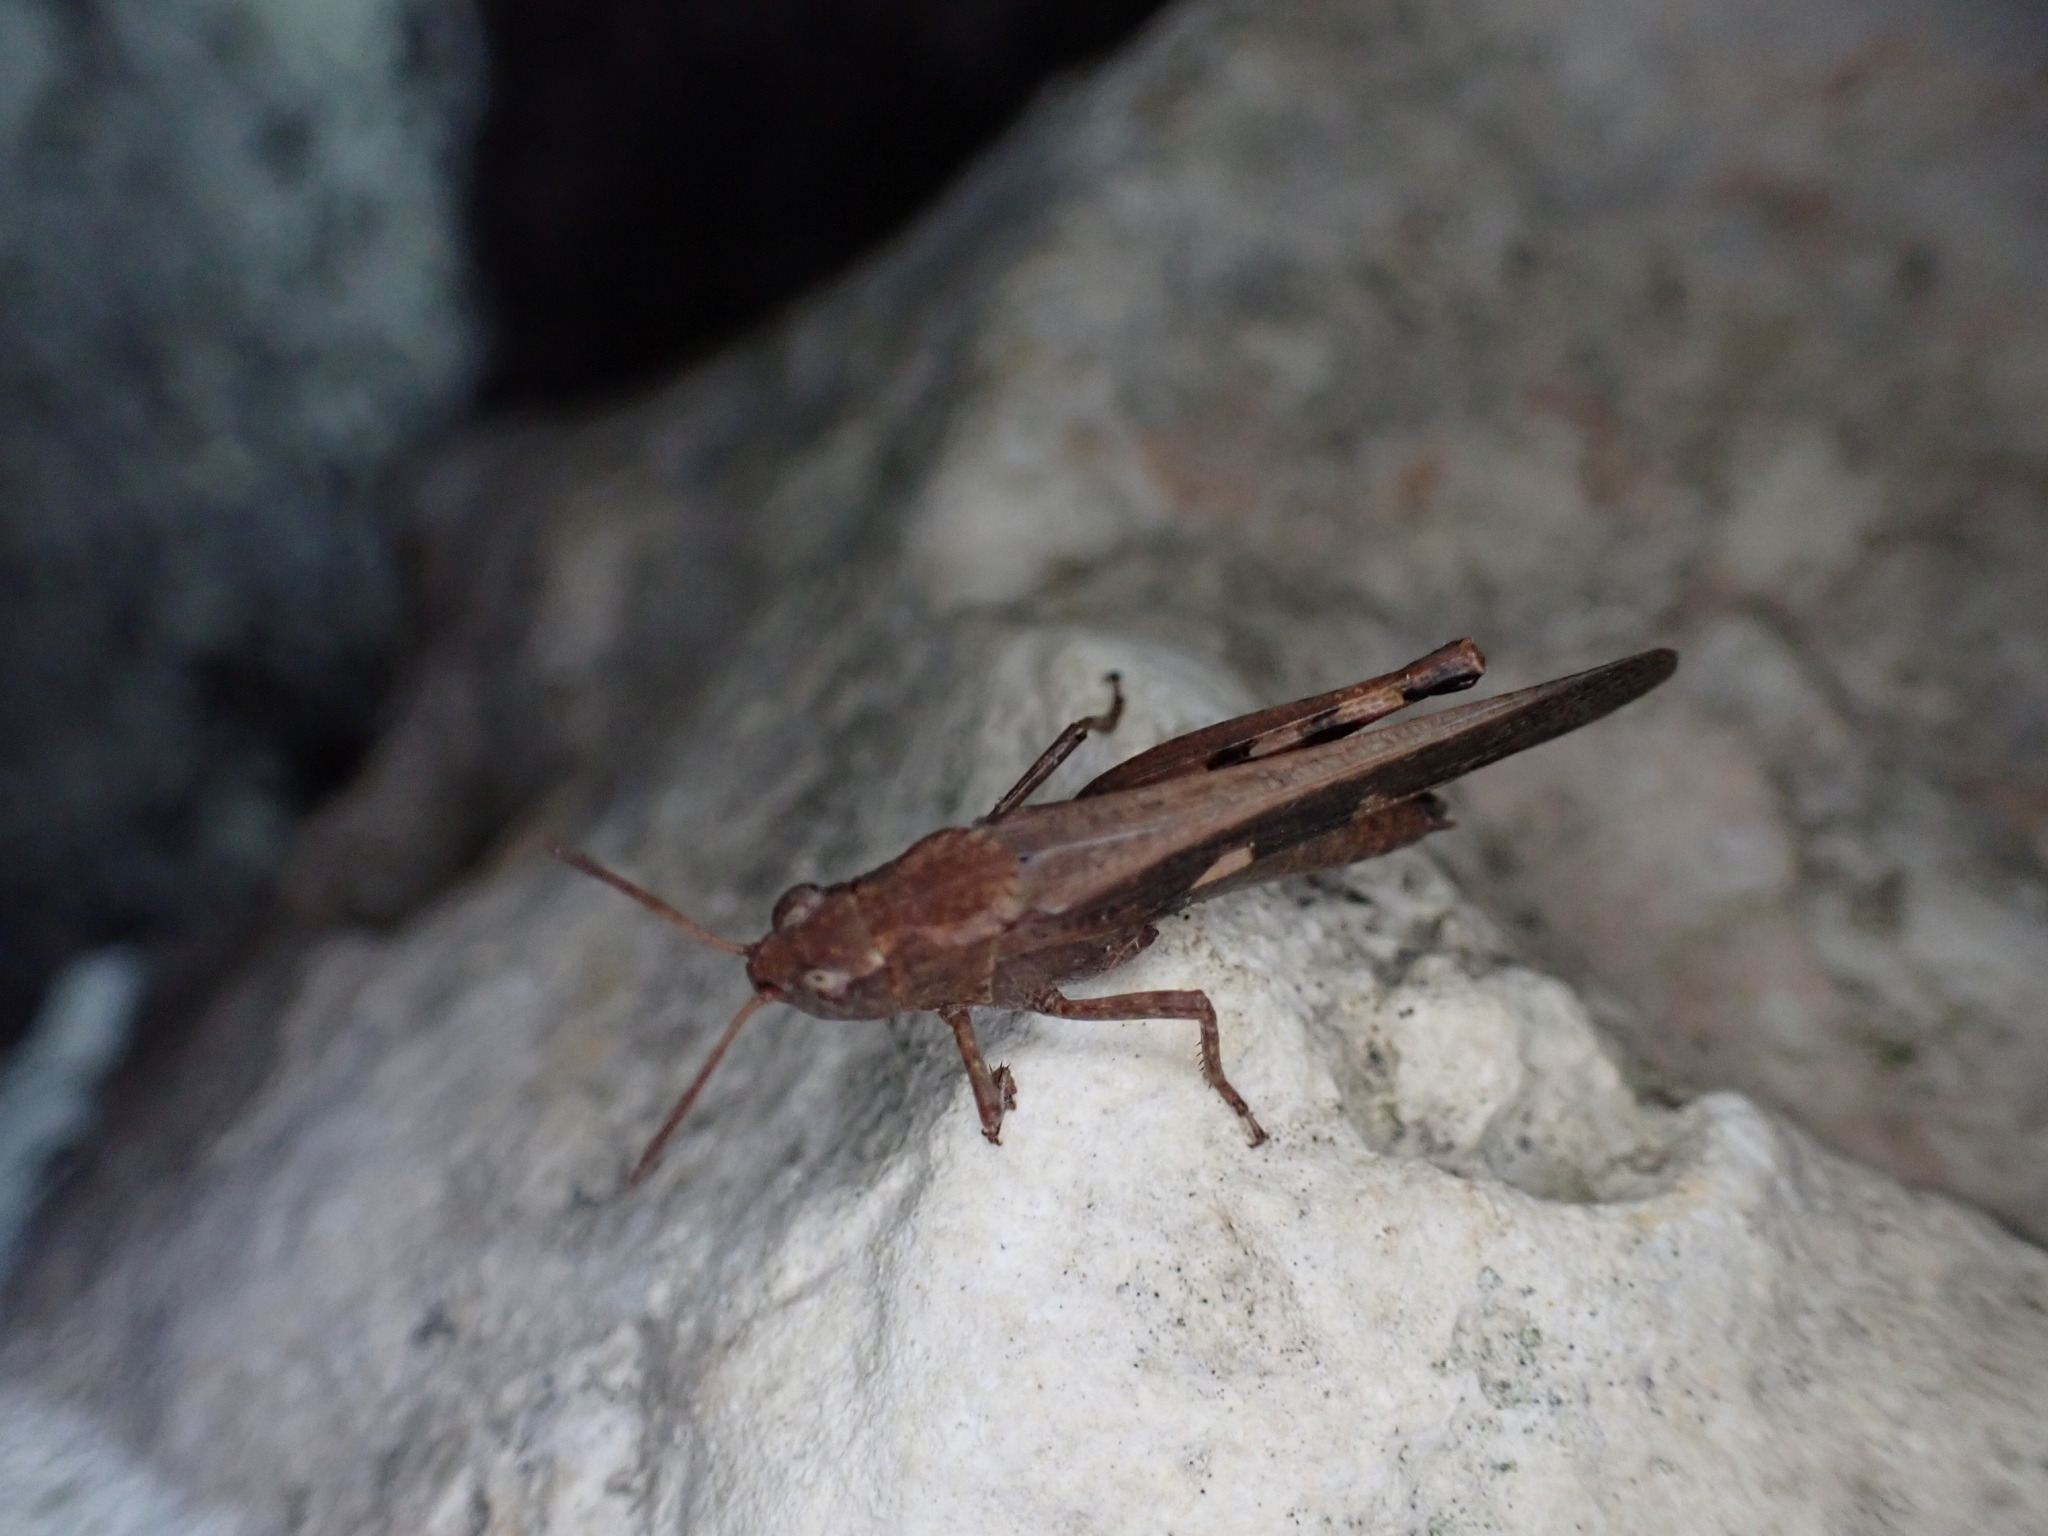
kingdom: Animalia
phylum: Arthropoda
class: Insecta
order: Orthoptera
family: Acrididae
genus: Aiolopus
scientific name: Aiolopus strepens
